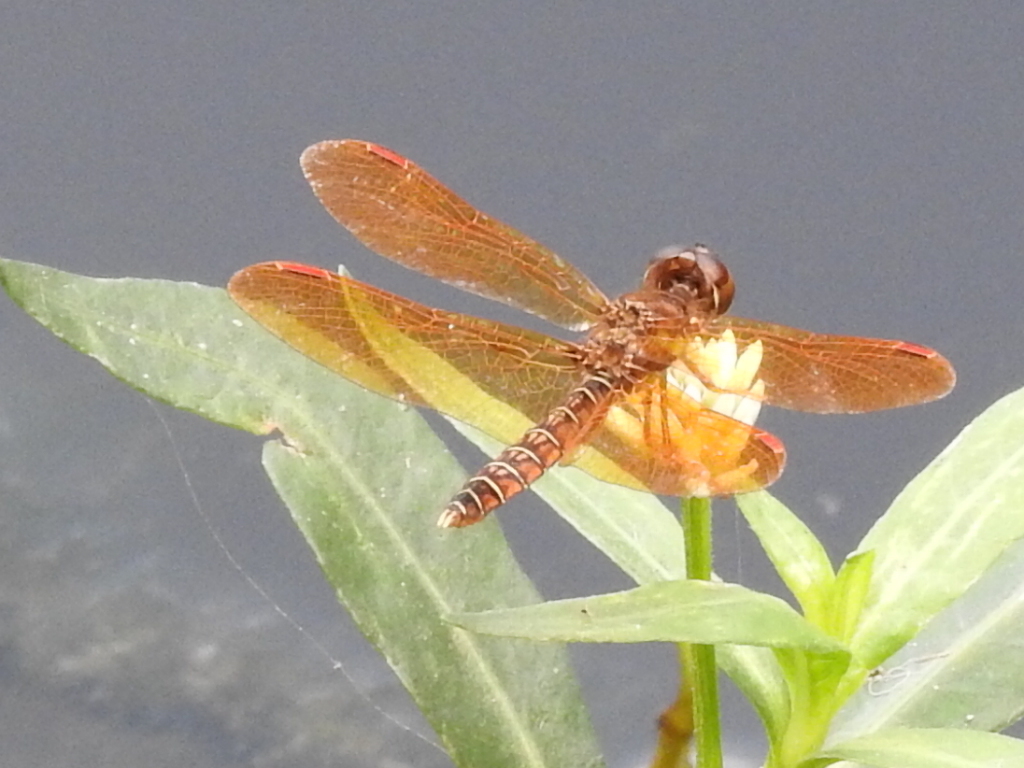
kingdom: Animalia
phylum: Arthropoda
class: Insecta
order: Odonata
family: Libellulidae
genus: Perithemis
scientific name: Perithemis tenera
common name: Eastern amberwing
